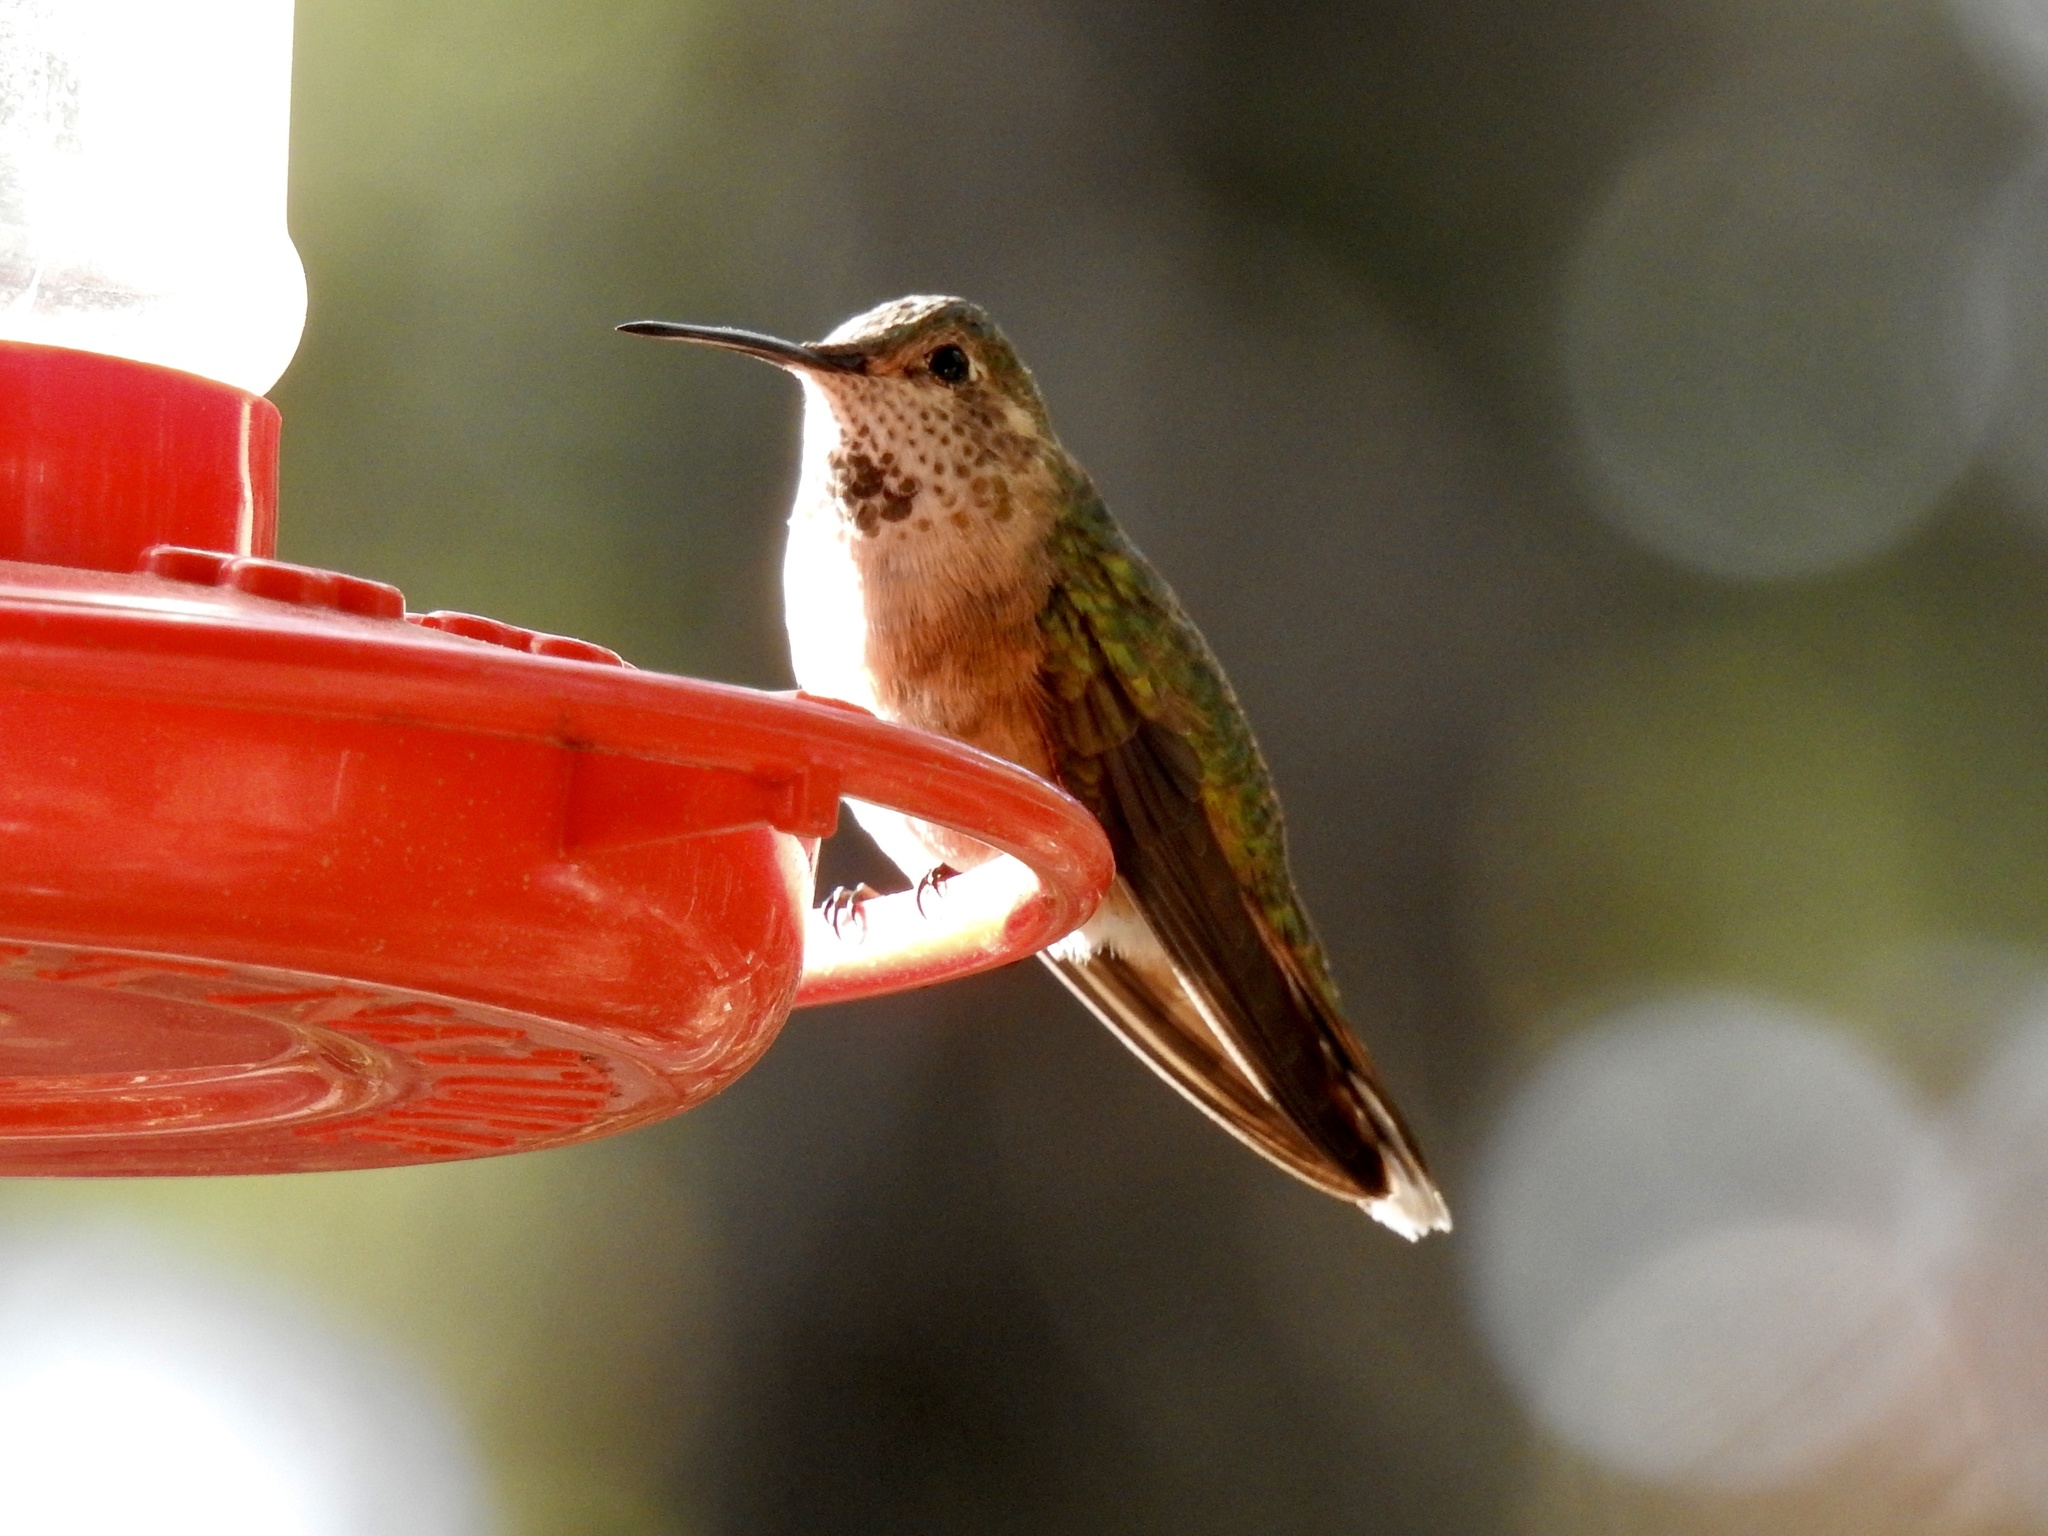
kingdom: Animalia
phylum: Chordata
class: Aves
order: Apodiformes
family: Trochilidae
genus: Selasphorus
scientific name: Selasphorus platycercus
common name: Broad-tailed hummingbird
